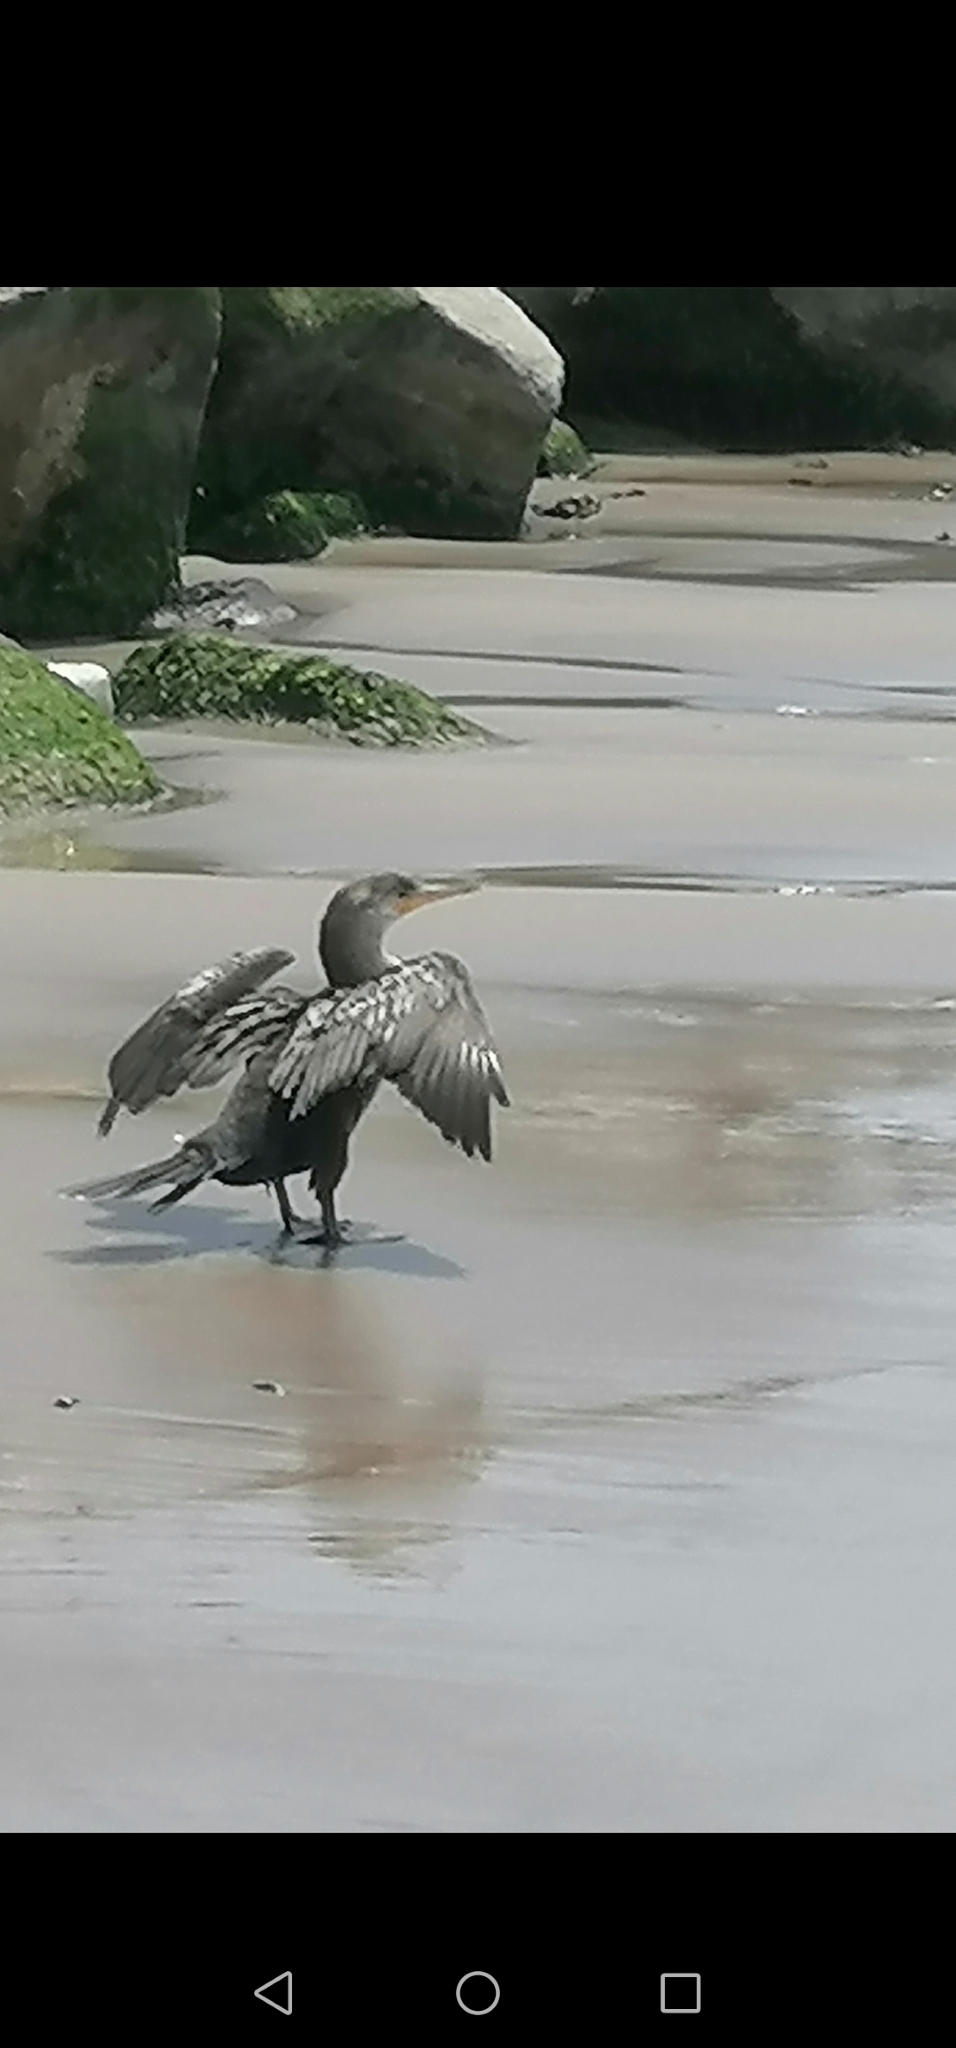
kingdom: Animalia
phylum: Chordata
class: Aves
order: Suliformes
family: Phalacrocoracidae
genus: Phalacrocorax
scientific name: Phalacrocorax brasilianus
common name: Neotropic cormorant
